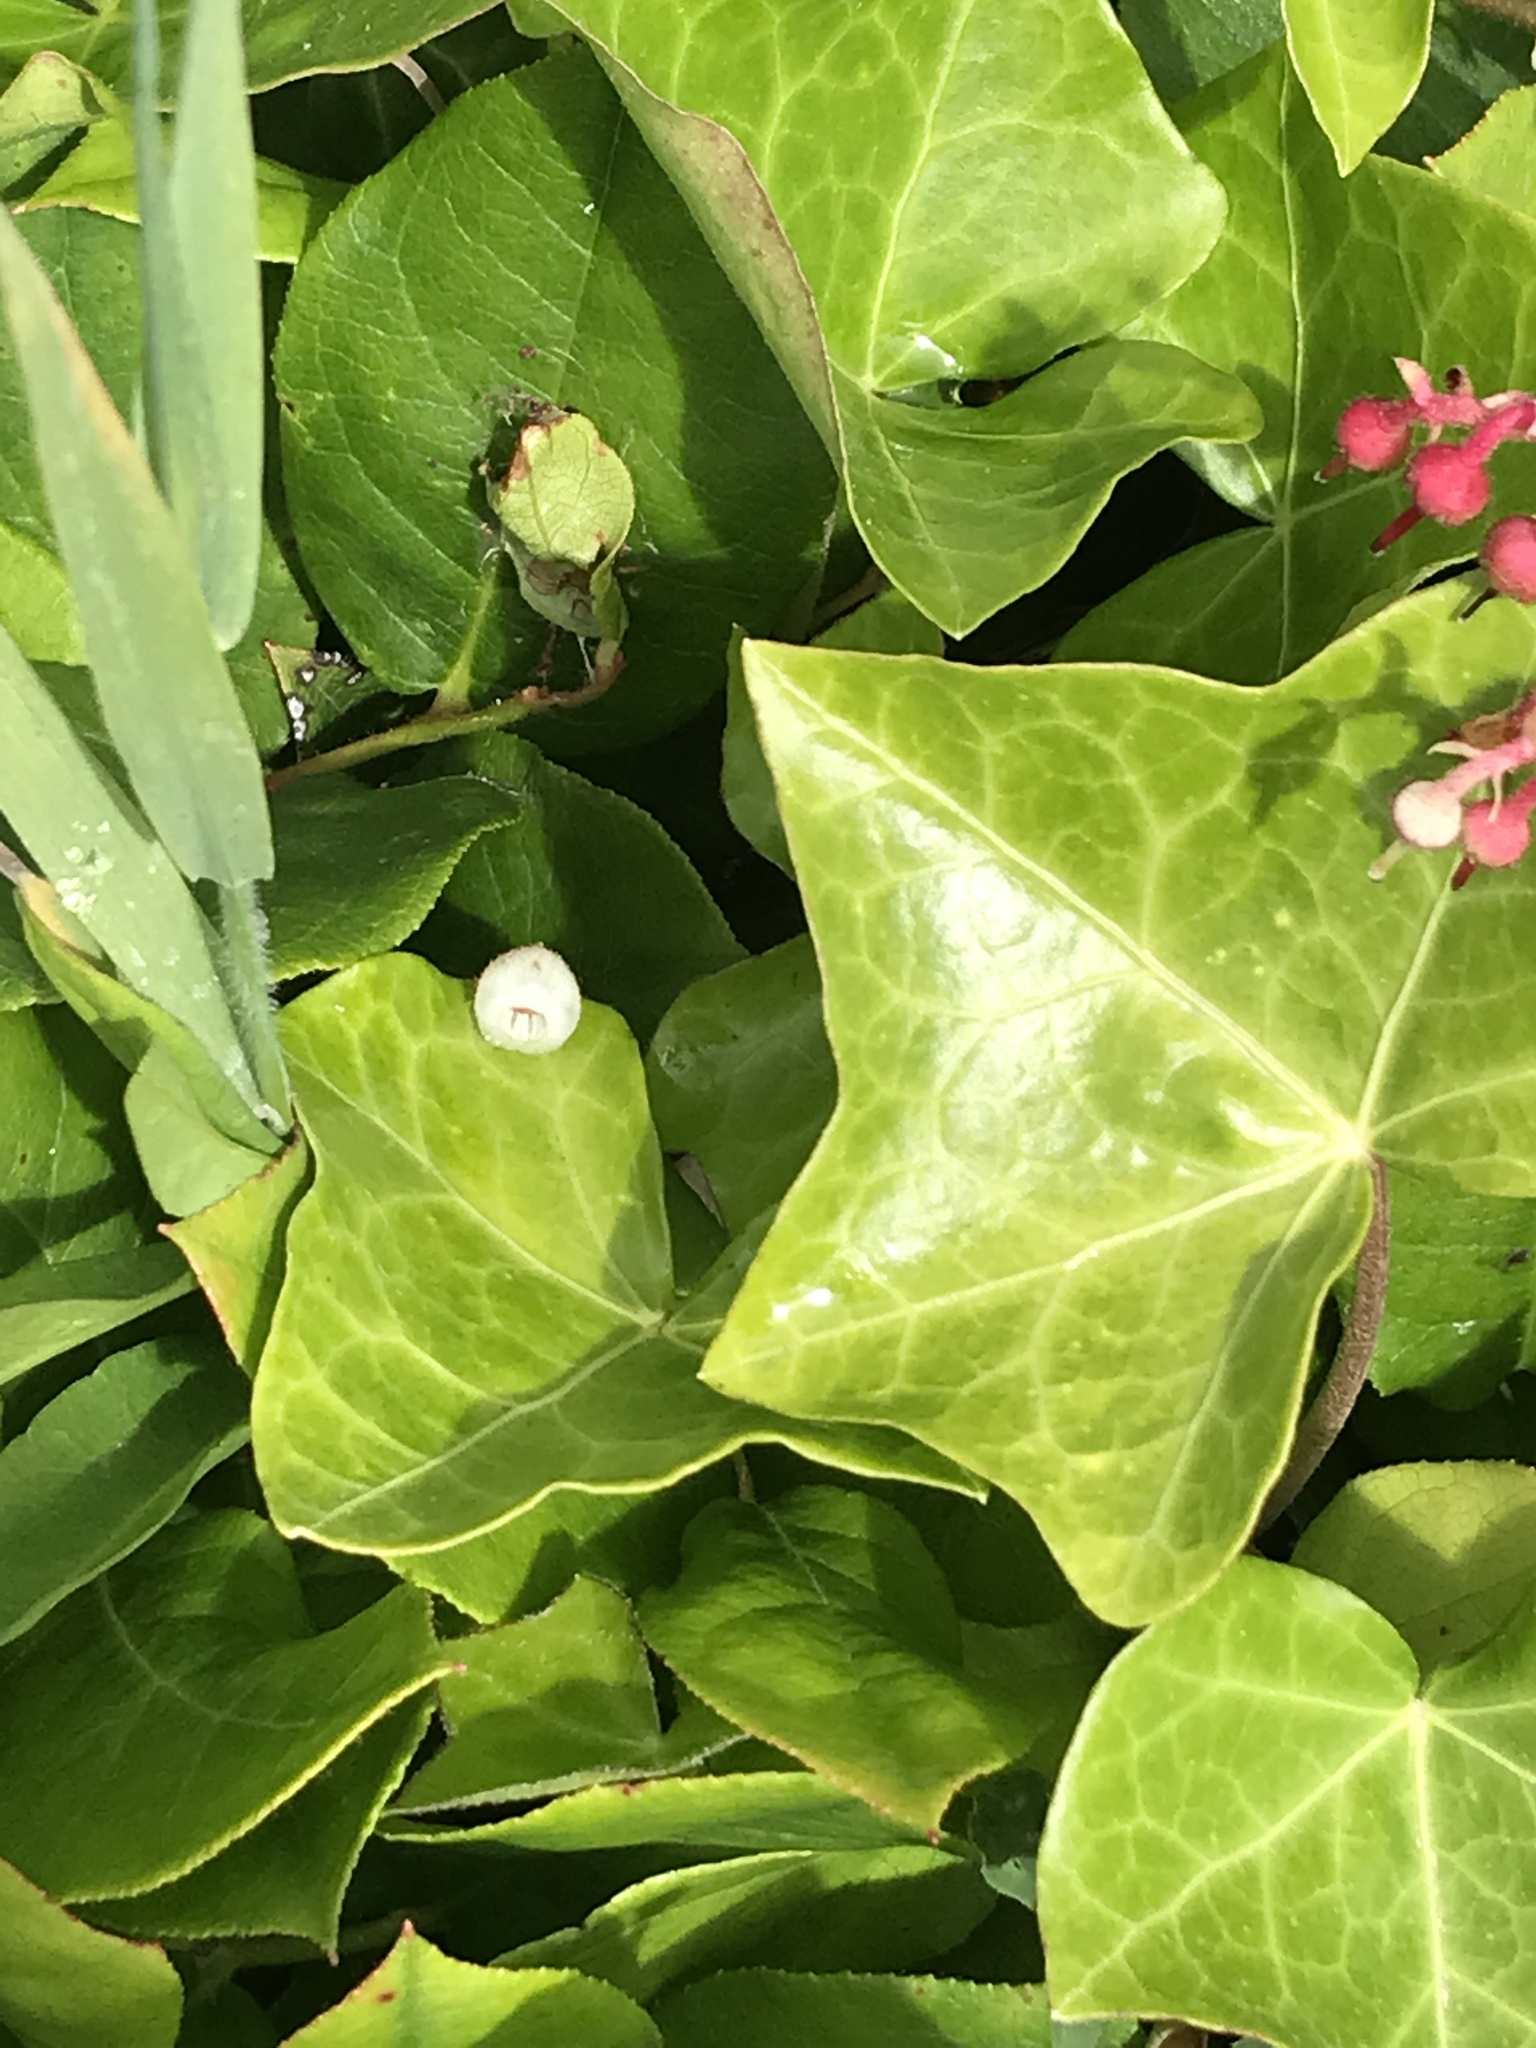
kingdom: Plantae
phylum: Tracheophyta
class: Magnoliopsida
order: Apiales
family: Araliaceae
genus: Hedera
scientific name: Hedera hibernica
